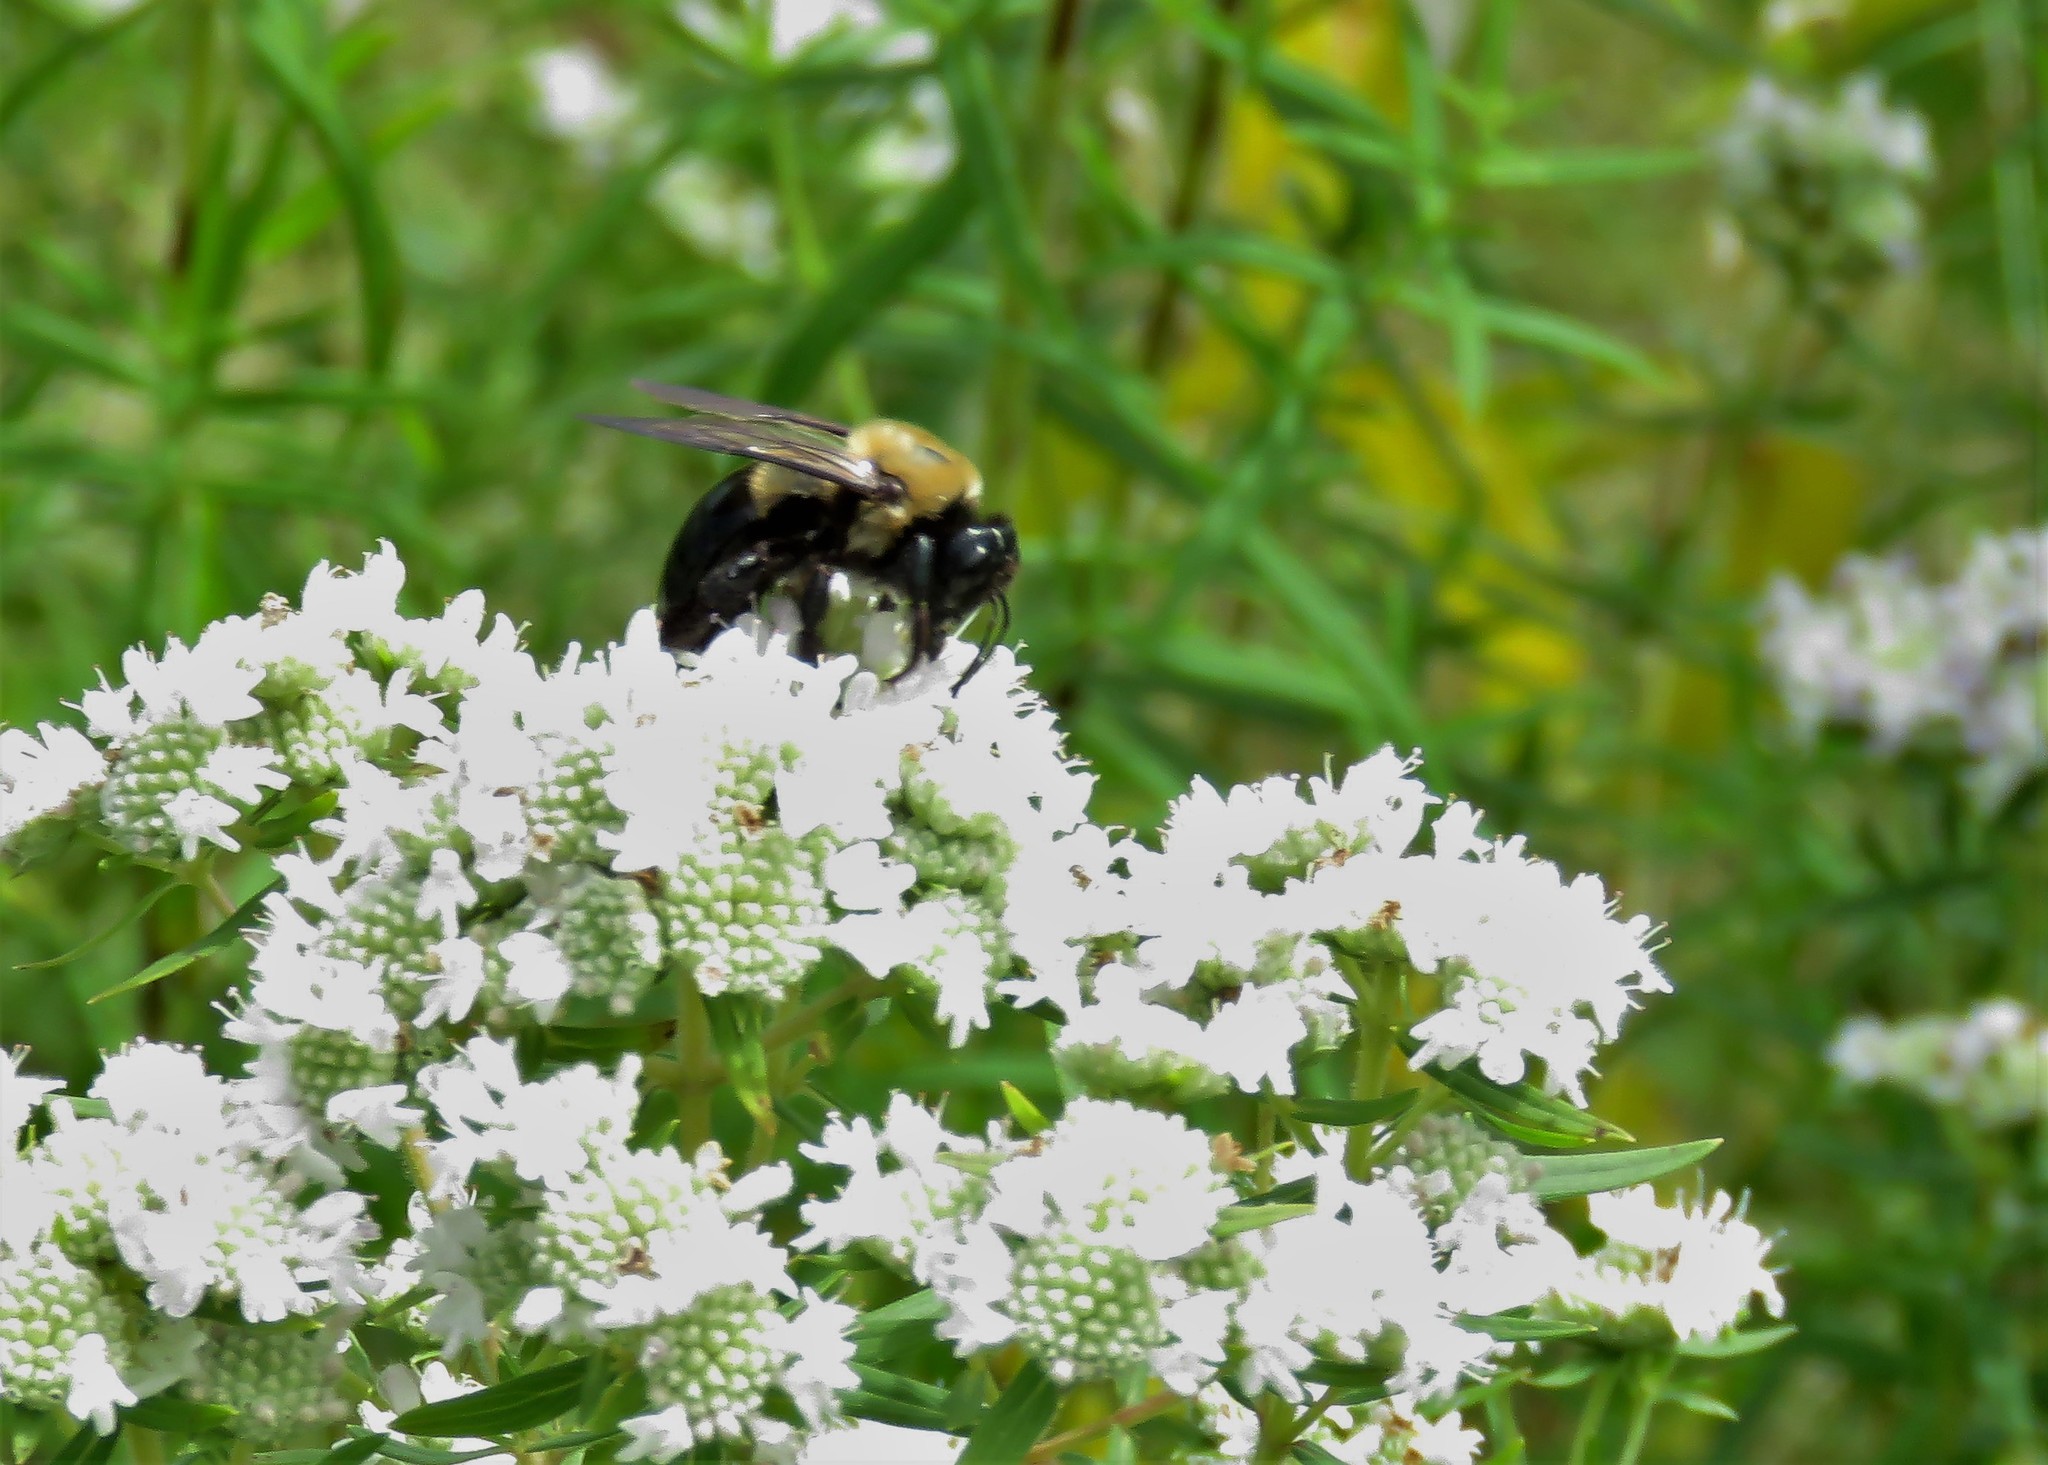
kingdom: Animalia
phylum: Arthropoda
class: Insecta
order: Hymenoptera
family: Apidae
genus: Xylocopa
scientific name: Xylocopa virginica
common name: Carpenter bee
